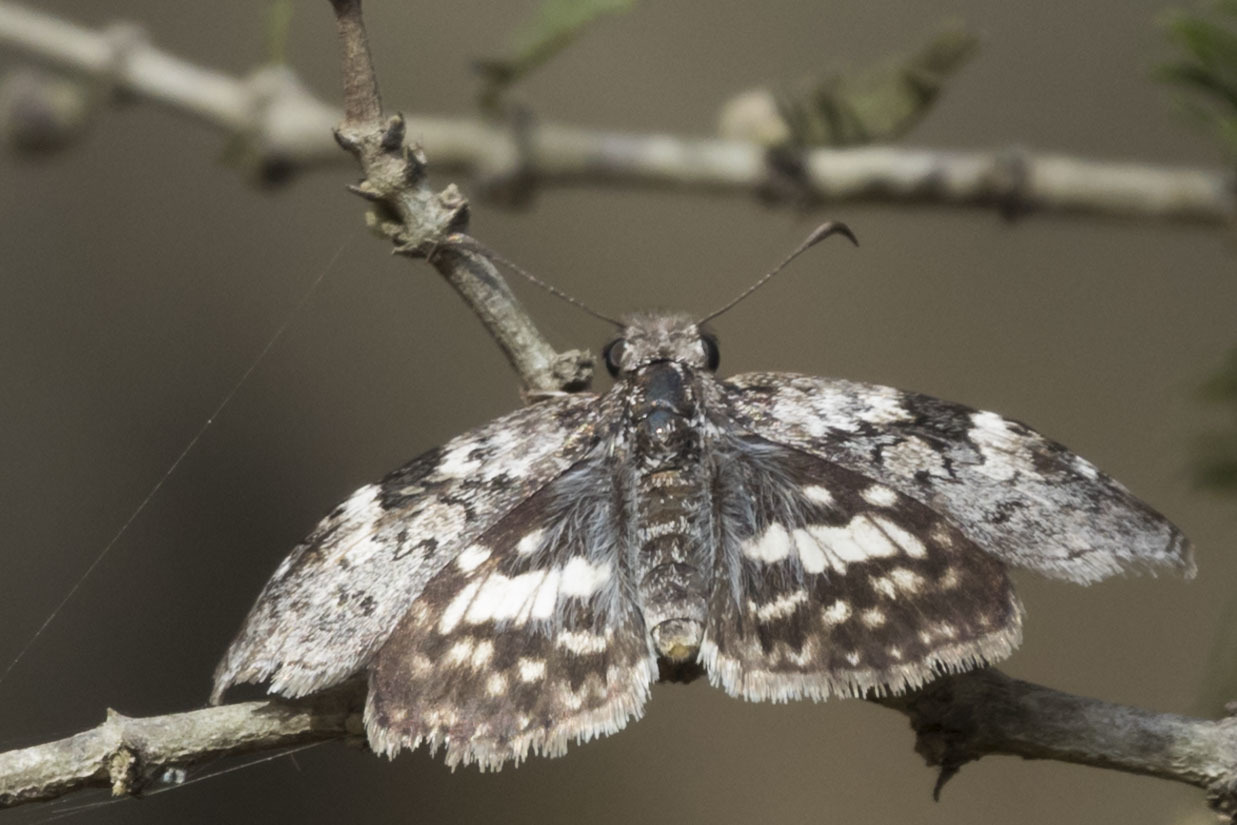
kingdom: Animalia
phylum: Arthropoda
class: Insecta
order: Lepidoptera
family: Hesperiidae
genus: Chiomara
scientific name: Chiomara asychis
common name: White-patterned skipper
